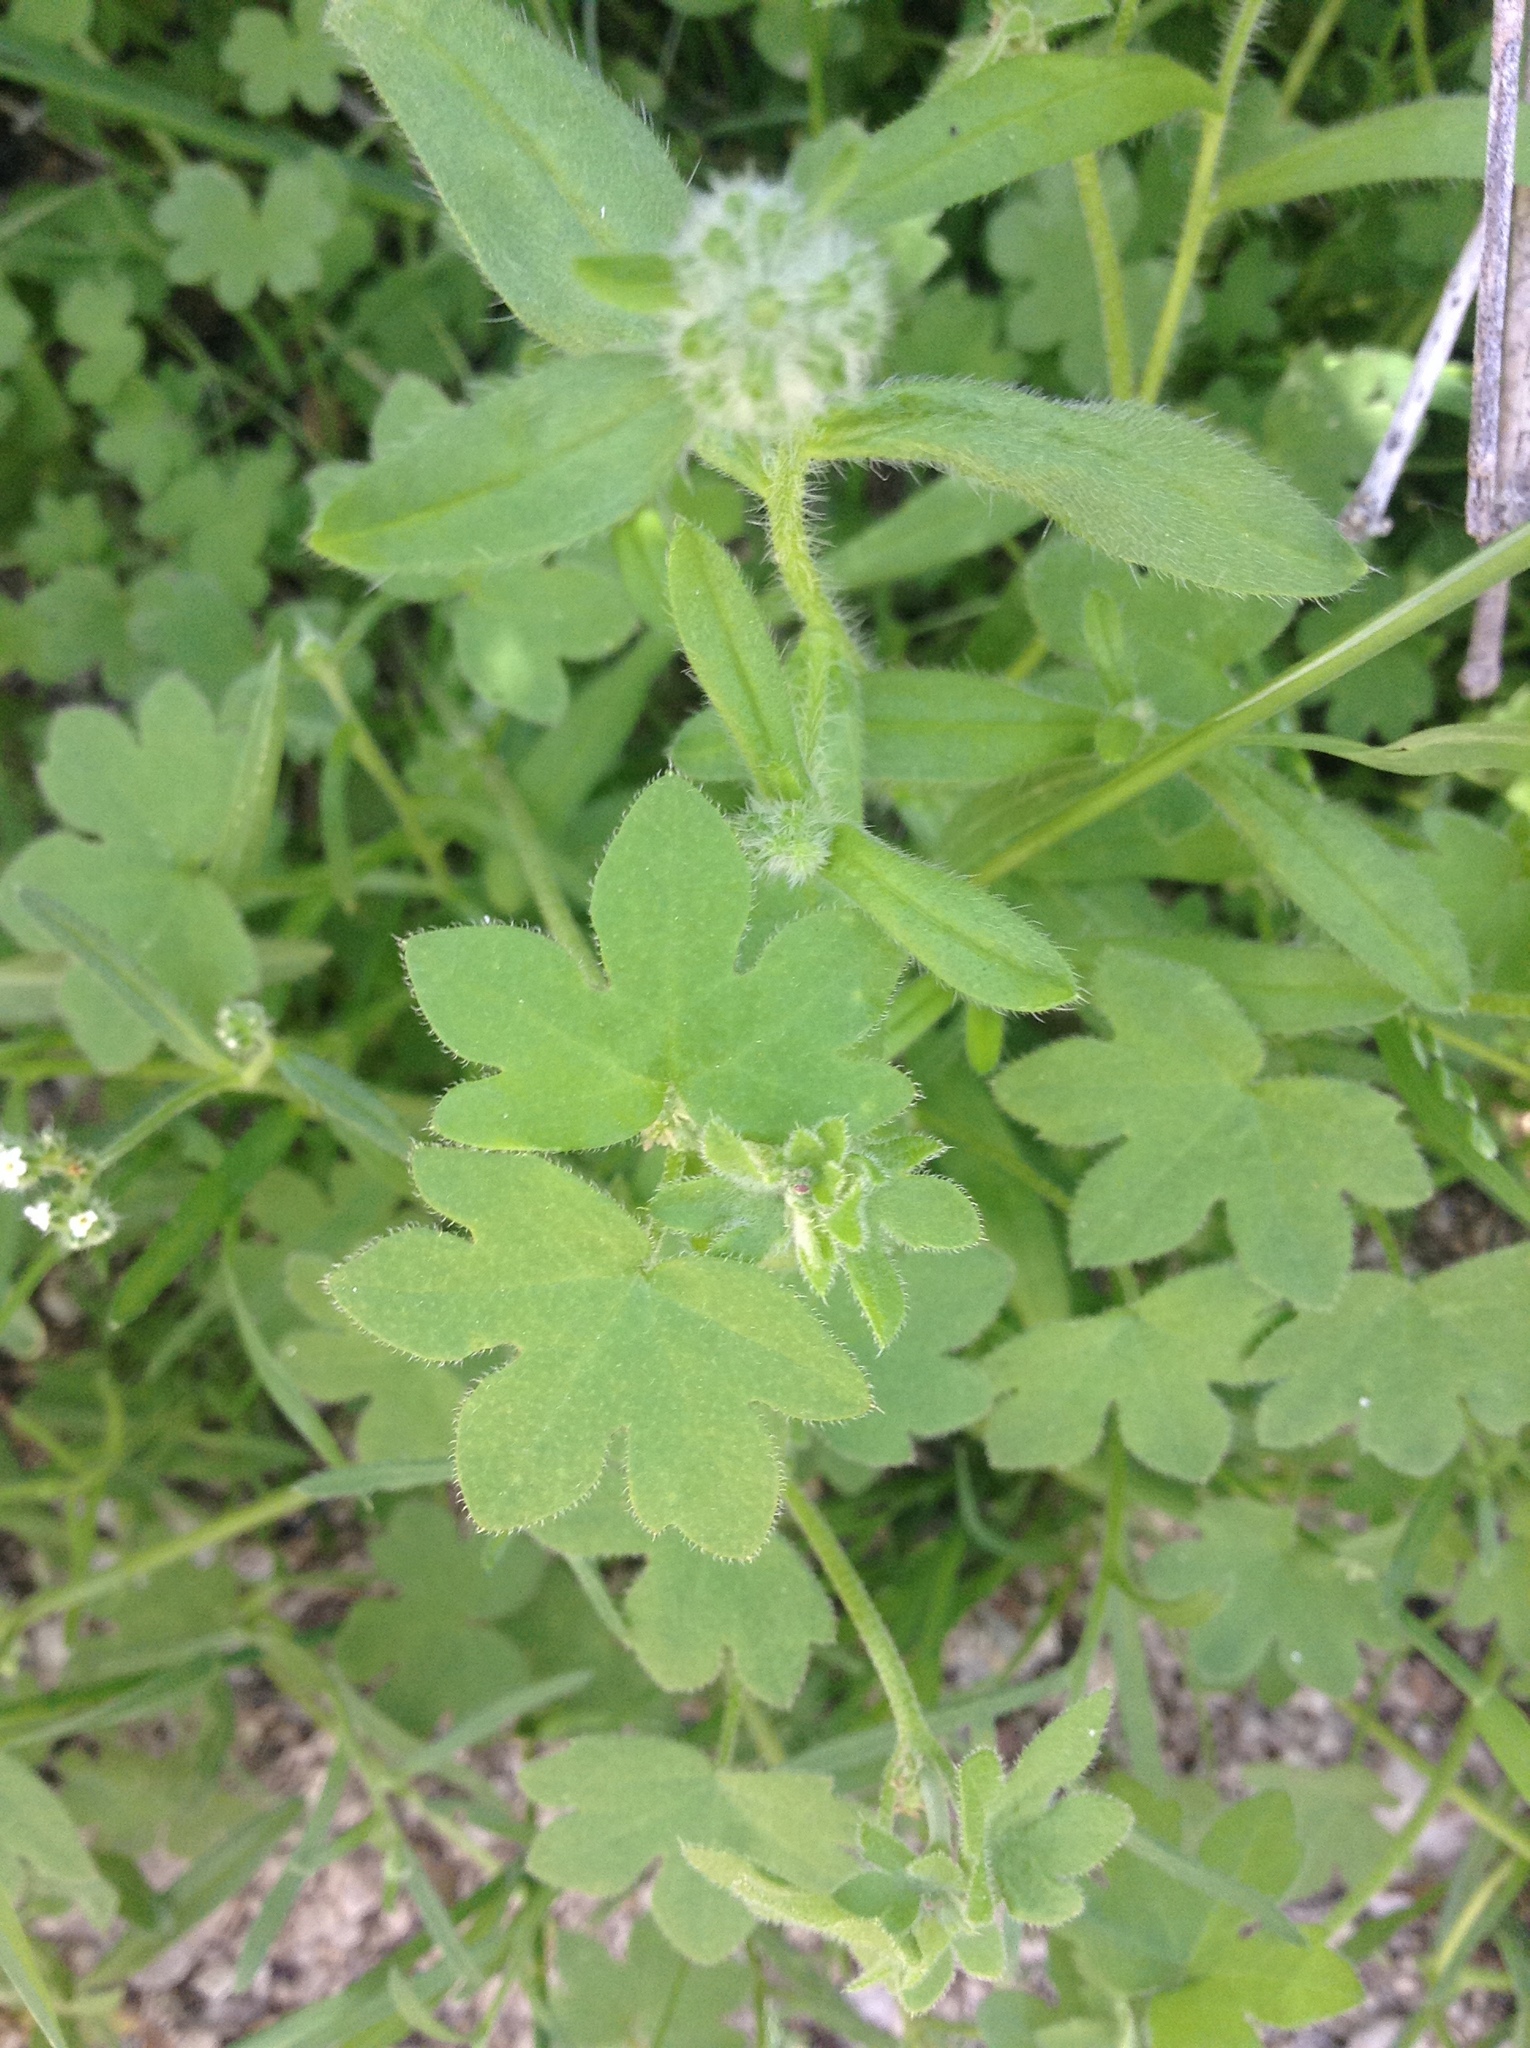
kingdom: Plantae
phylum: Tracheophyta
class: Magnoliopsida
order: Apiales
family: Apiaceae
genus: Bowlesia
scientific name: Bowlesia incana
